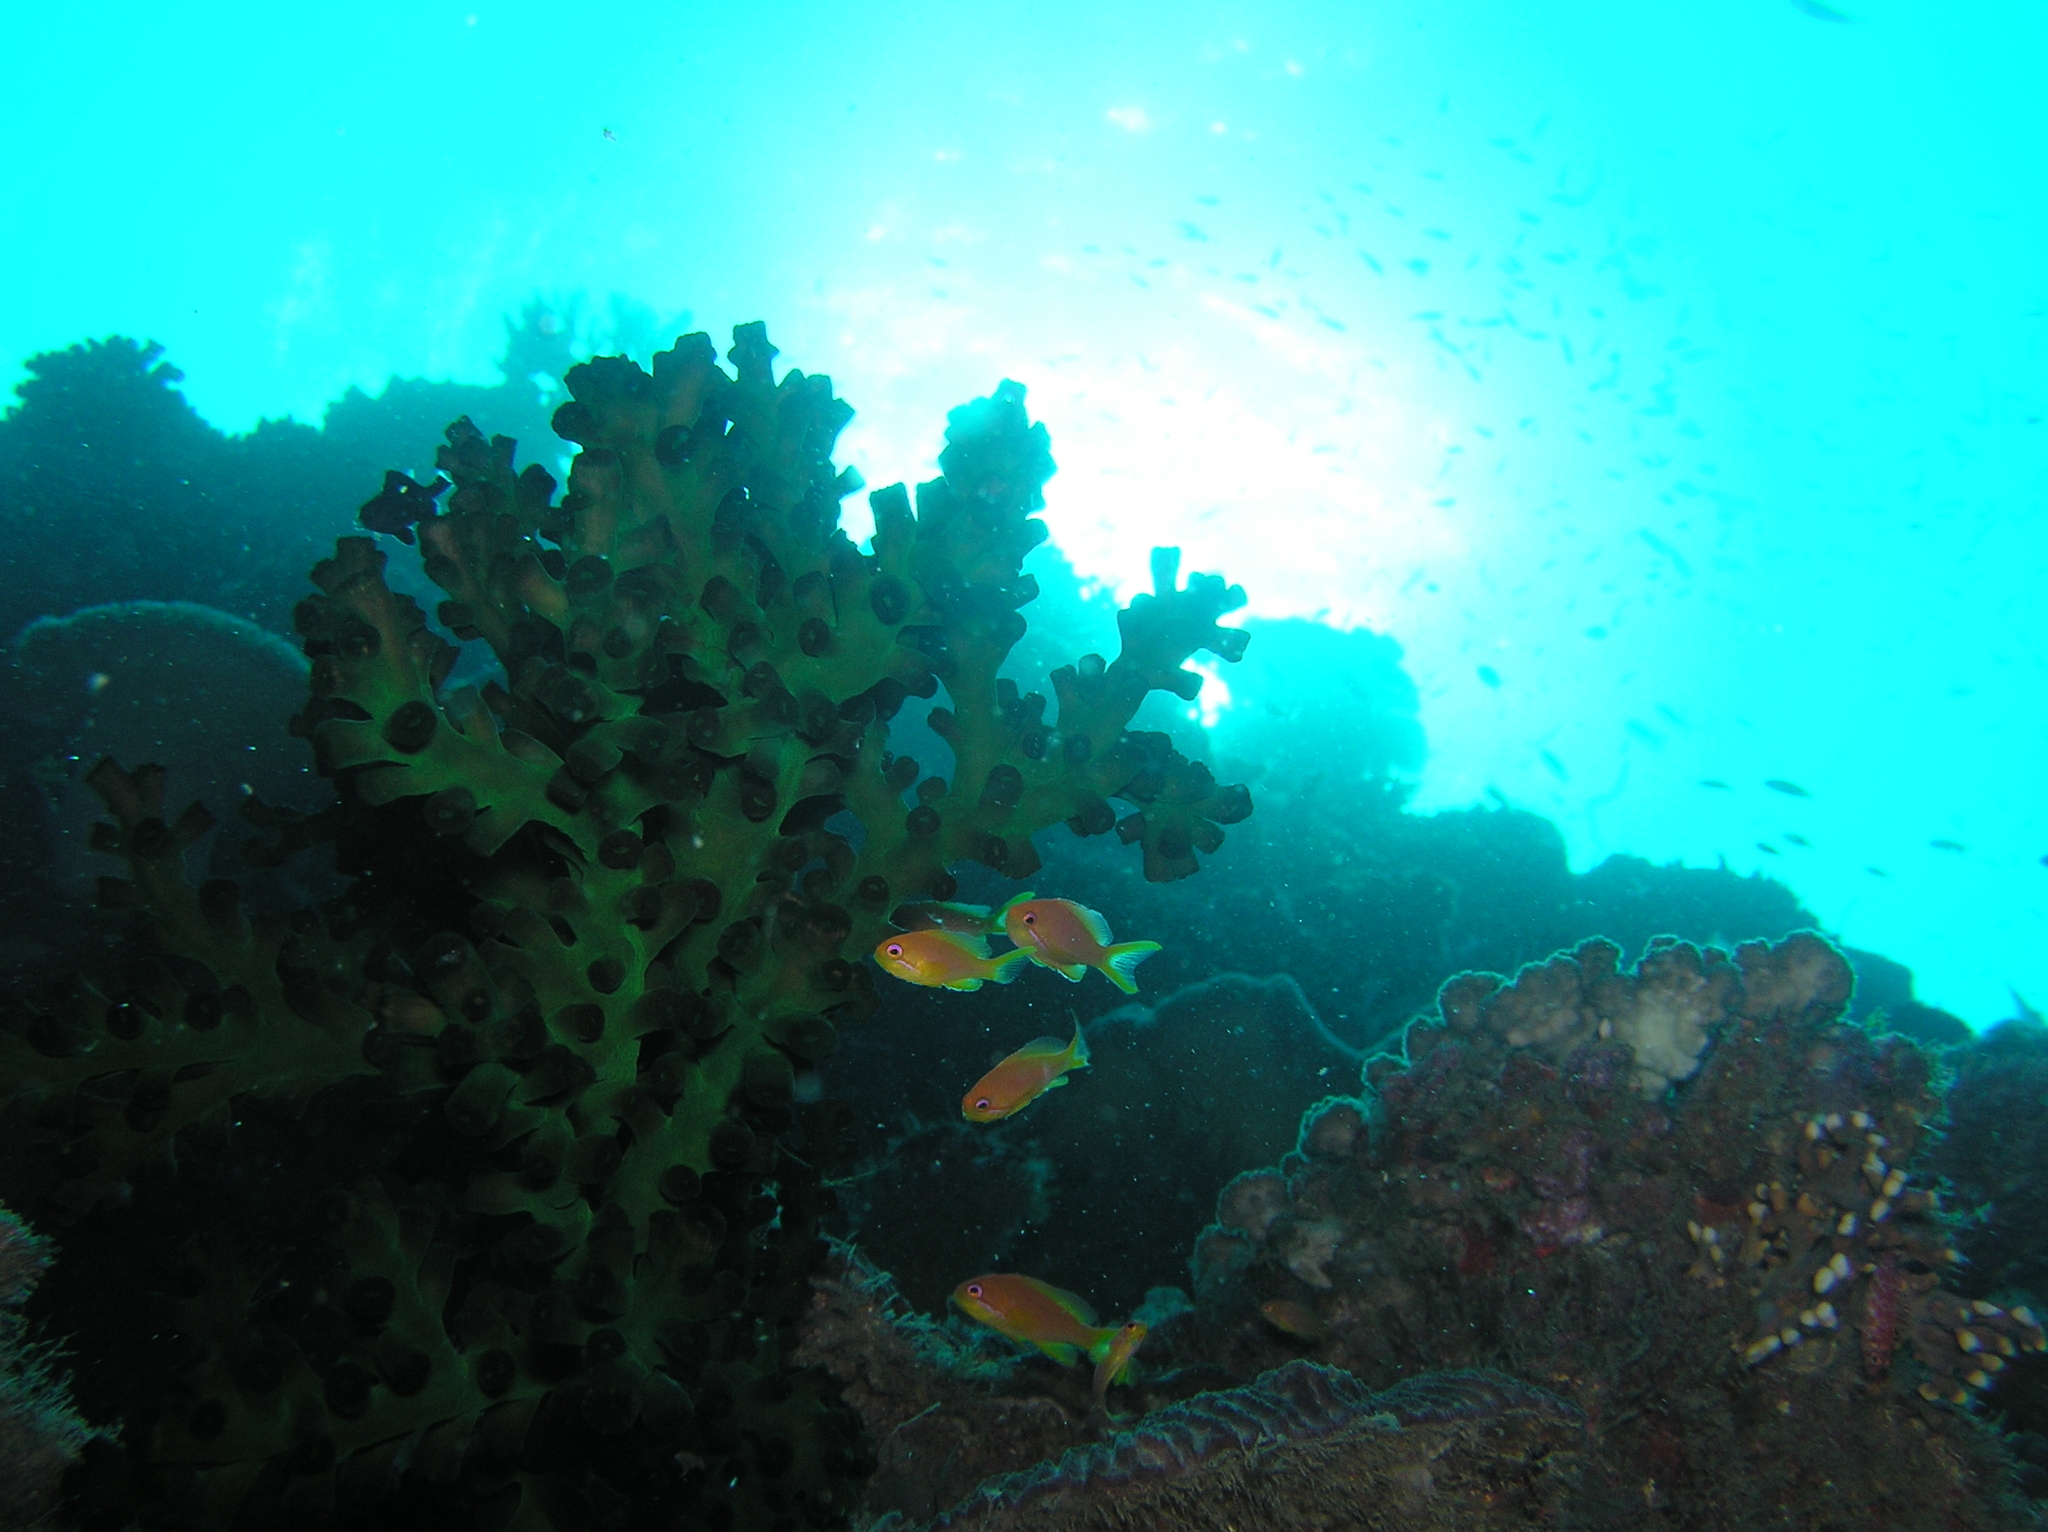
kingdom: Animalia
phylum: Chordata
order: Perciformes
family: Serranidae
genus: Pseudanthias
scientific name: Pseudanthias squamipinnis
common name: Scalefin anthias
